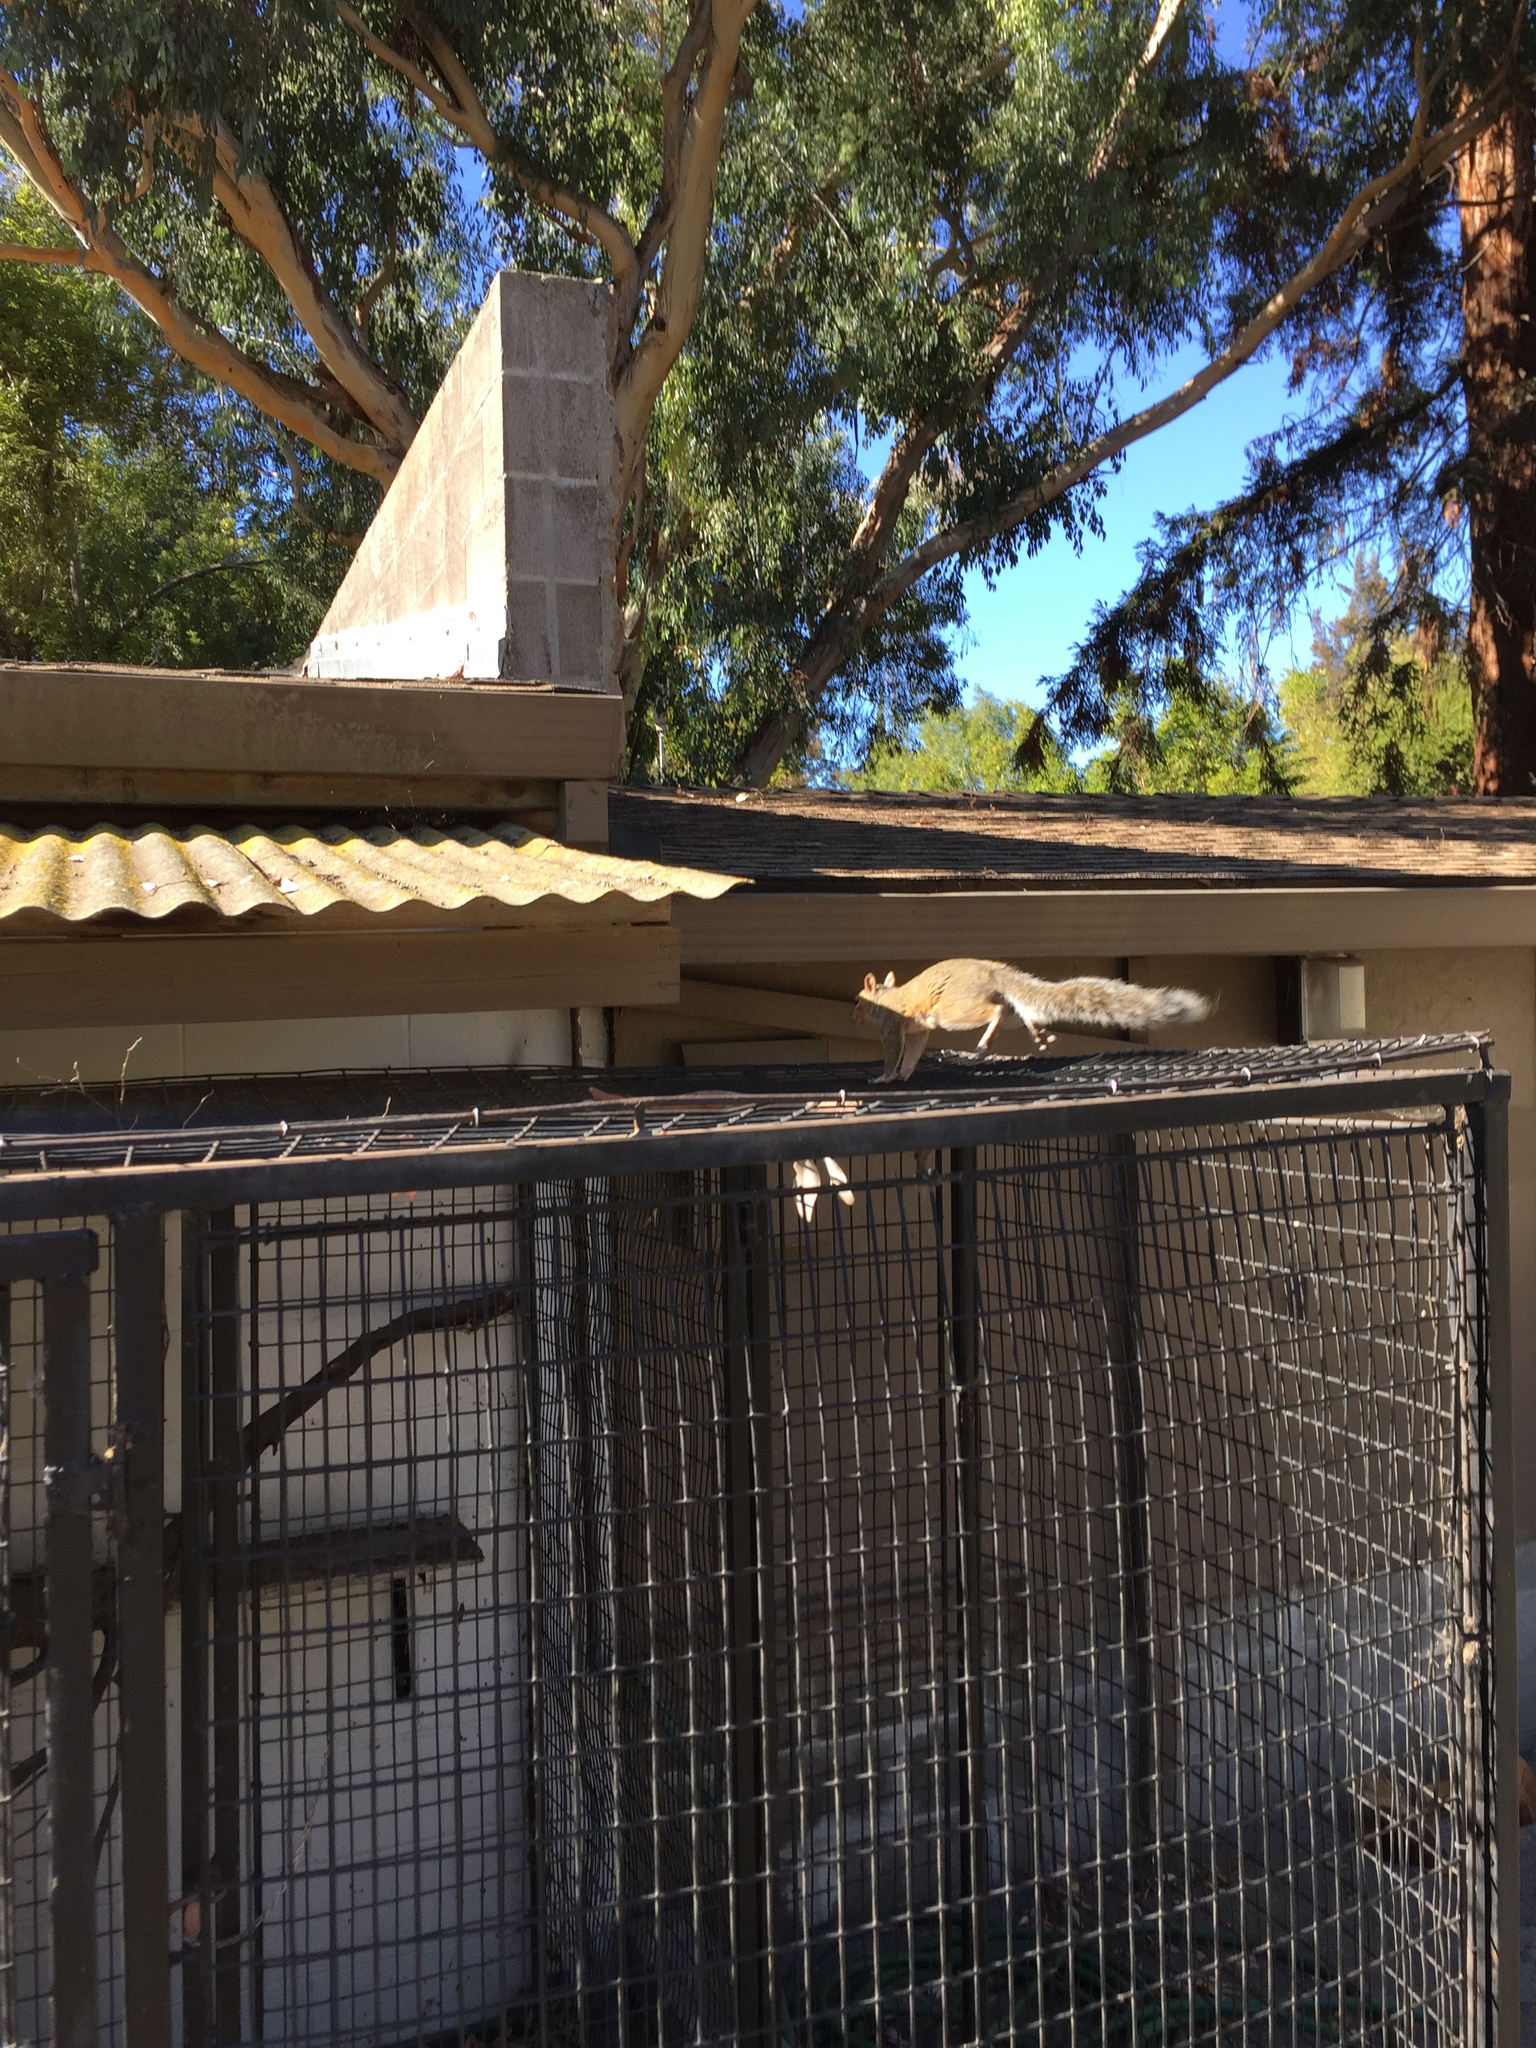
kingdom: Animalia
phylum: Chordata
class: Mammalia
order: Rodentia
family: Sciuridae
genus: Sciurus
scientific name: Sciurus carolinensis
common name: Eastern gray squirrel
